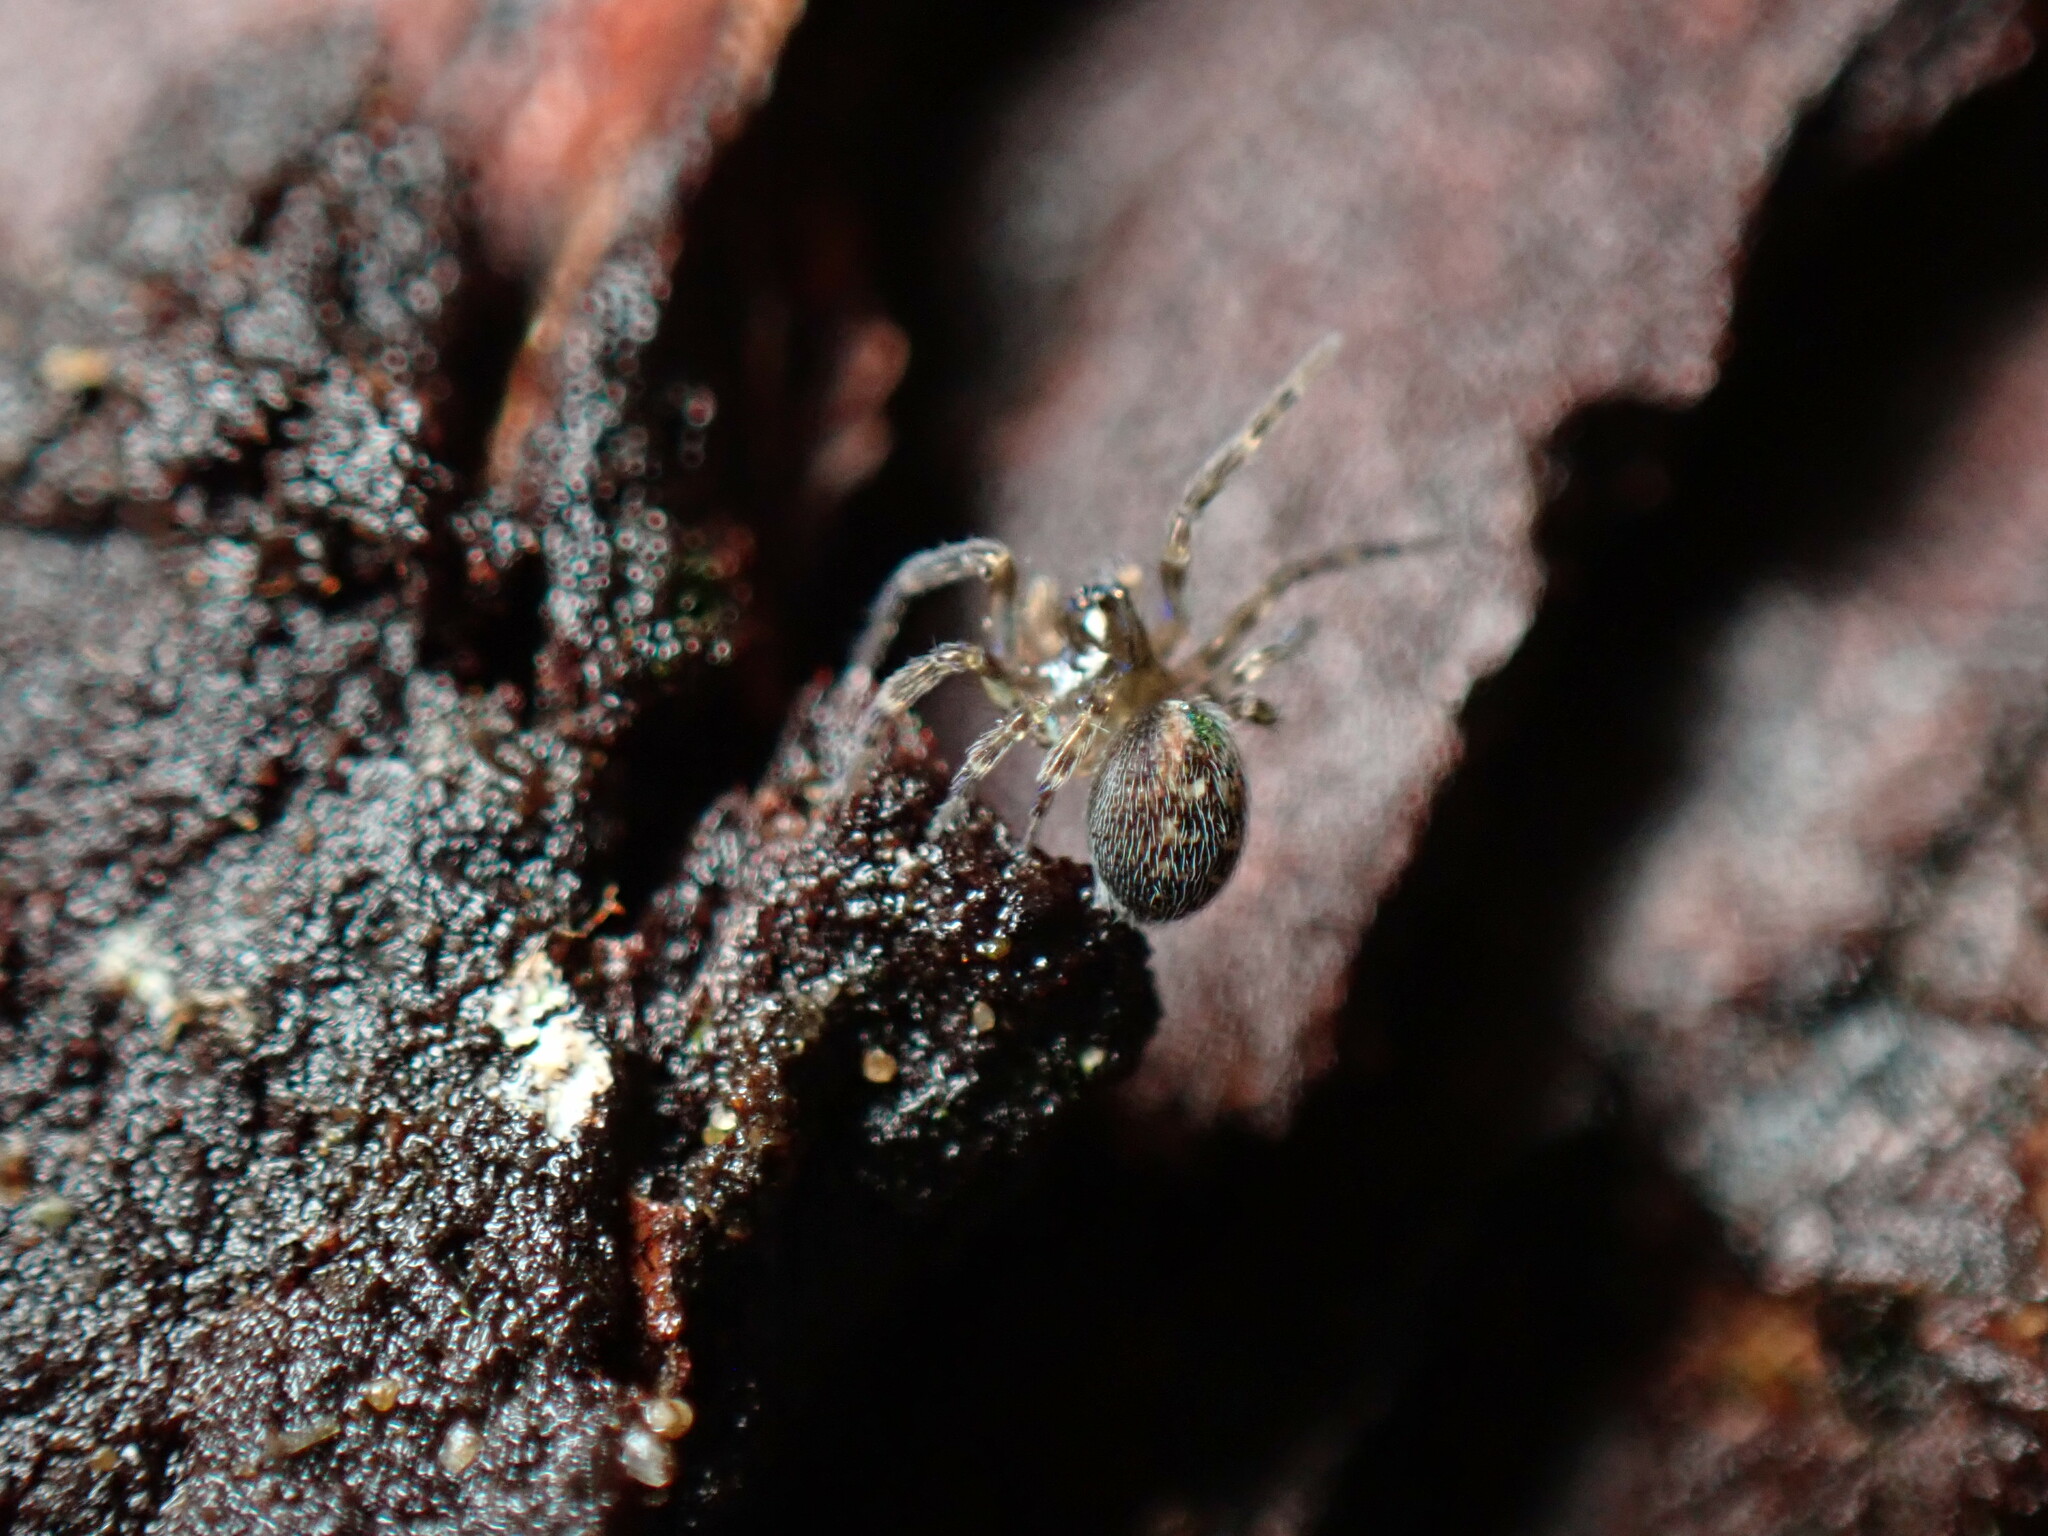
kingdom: Animalia
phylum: Arthropoda
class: Arachnida
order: Araneae
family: Dictynidae
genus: Lathys
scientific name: Lathys humilis
